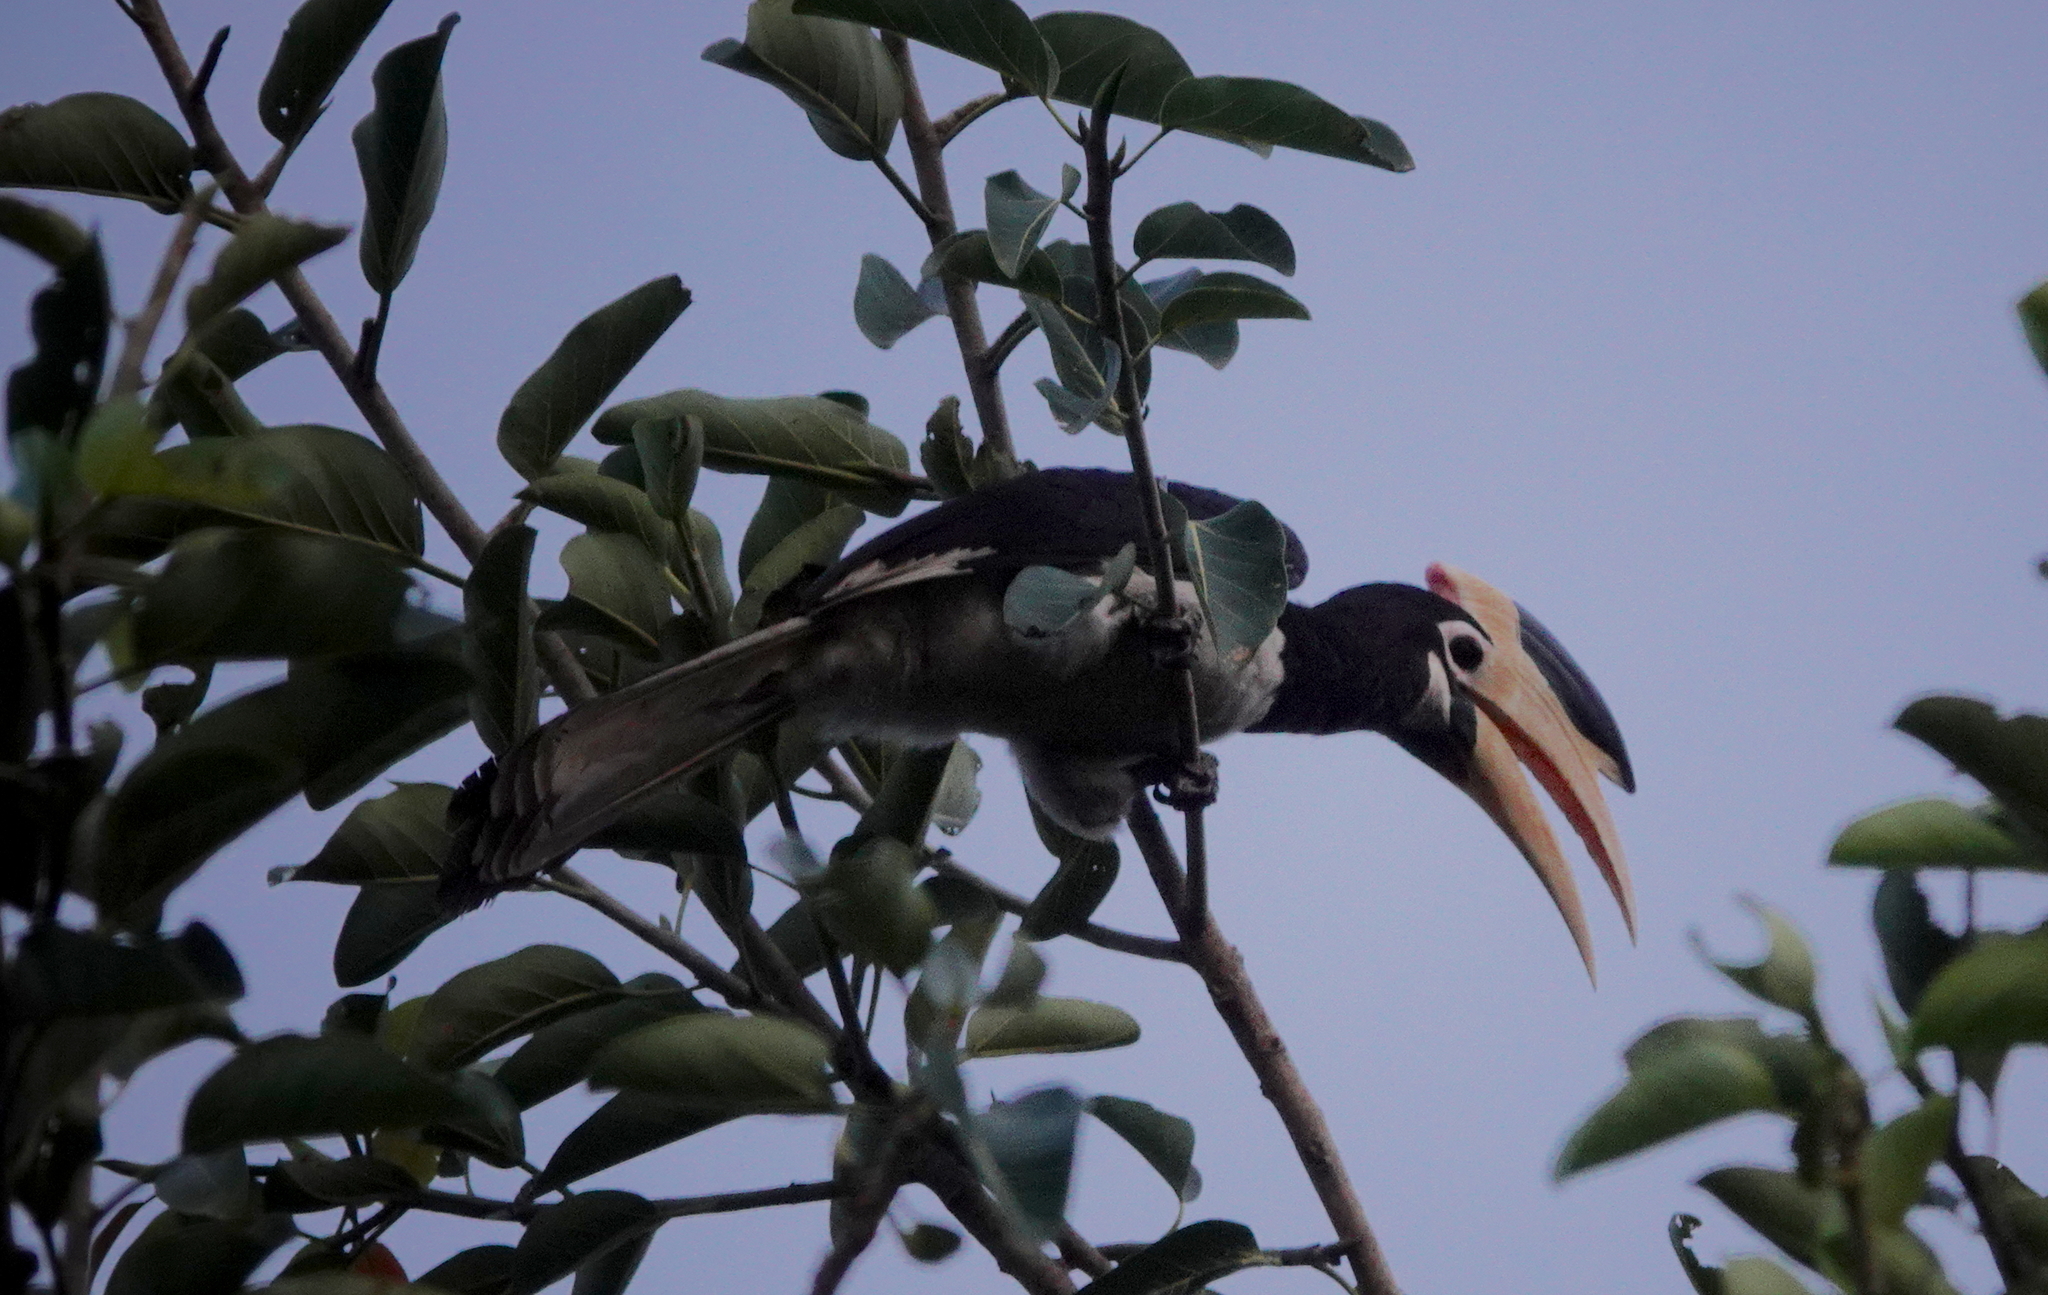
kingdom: Animalia
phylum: Chordata
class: Aves
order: Bucerotiformes
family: Bucerotidae
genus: Anthracoceros
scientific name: Anthracoceros coronatus
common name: Malabar pied hornbill
